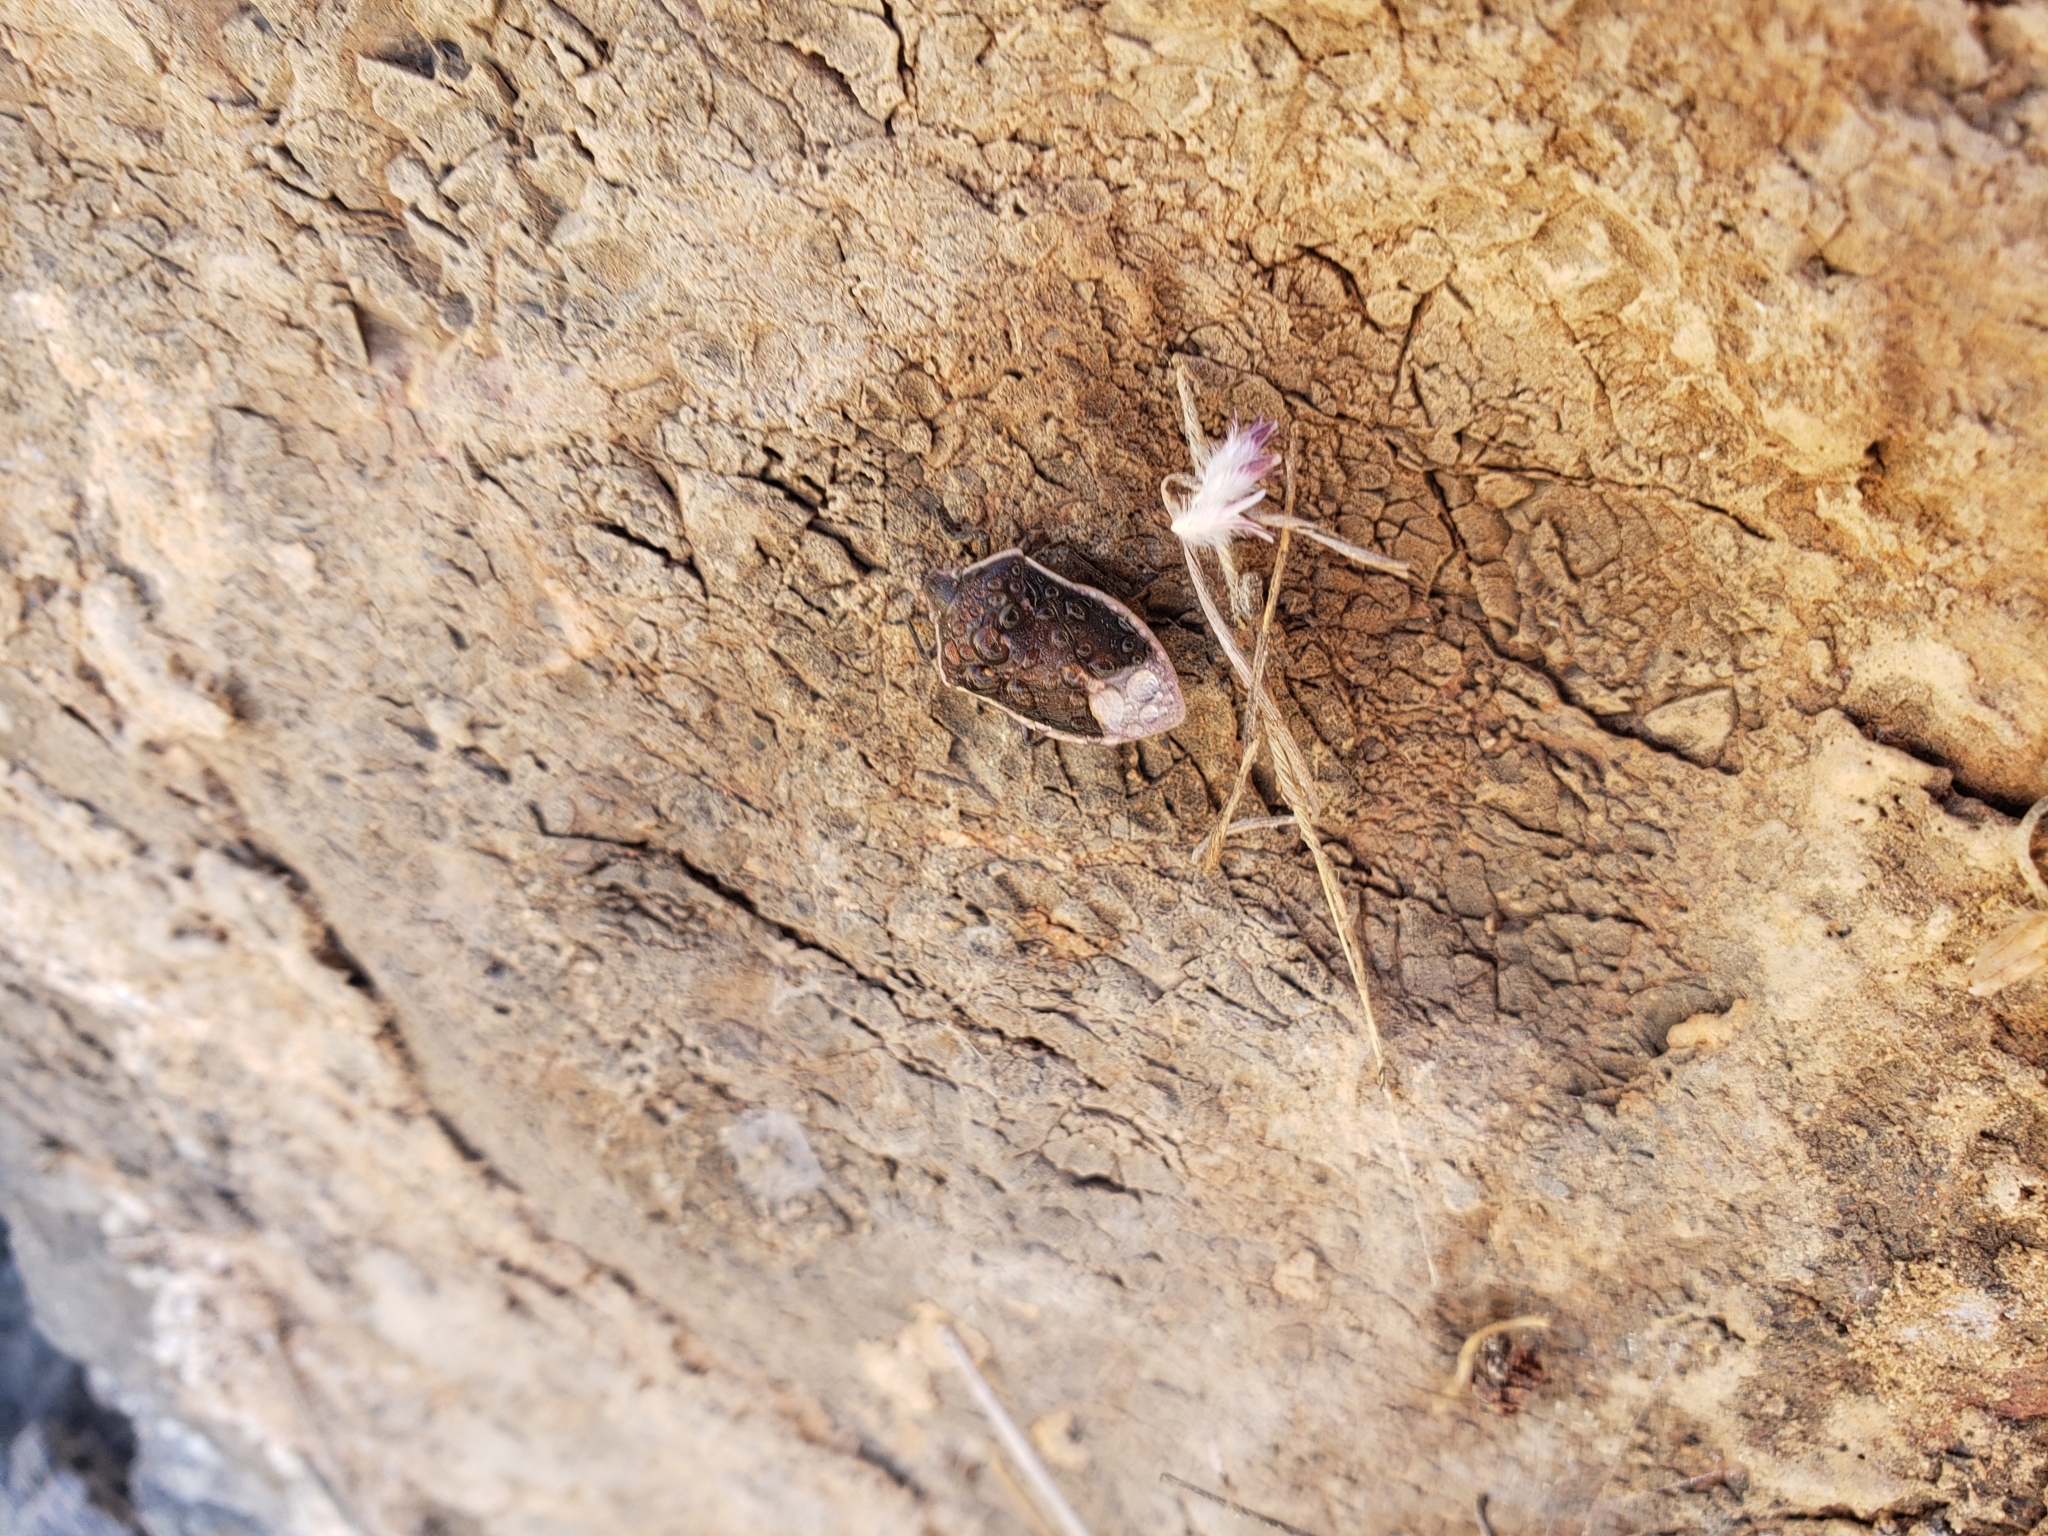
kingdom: Animalia
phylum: Arthropoda
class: Insecta
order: Hemiptera
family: Pentatomidae
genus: Chlorochroa
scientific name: Chlorochroa sayi
